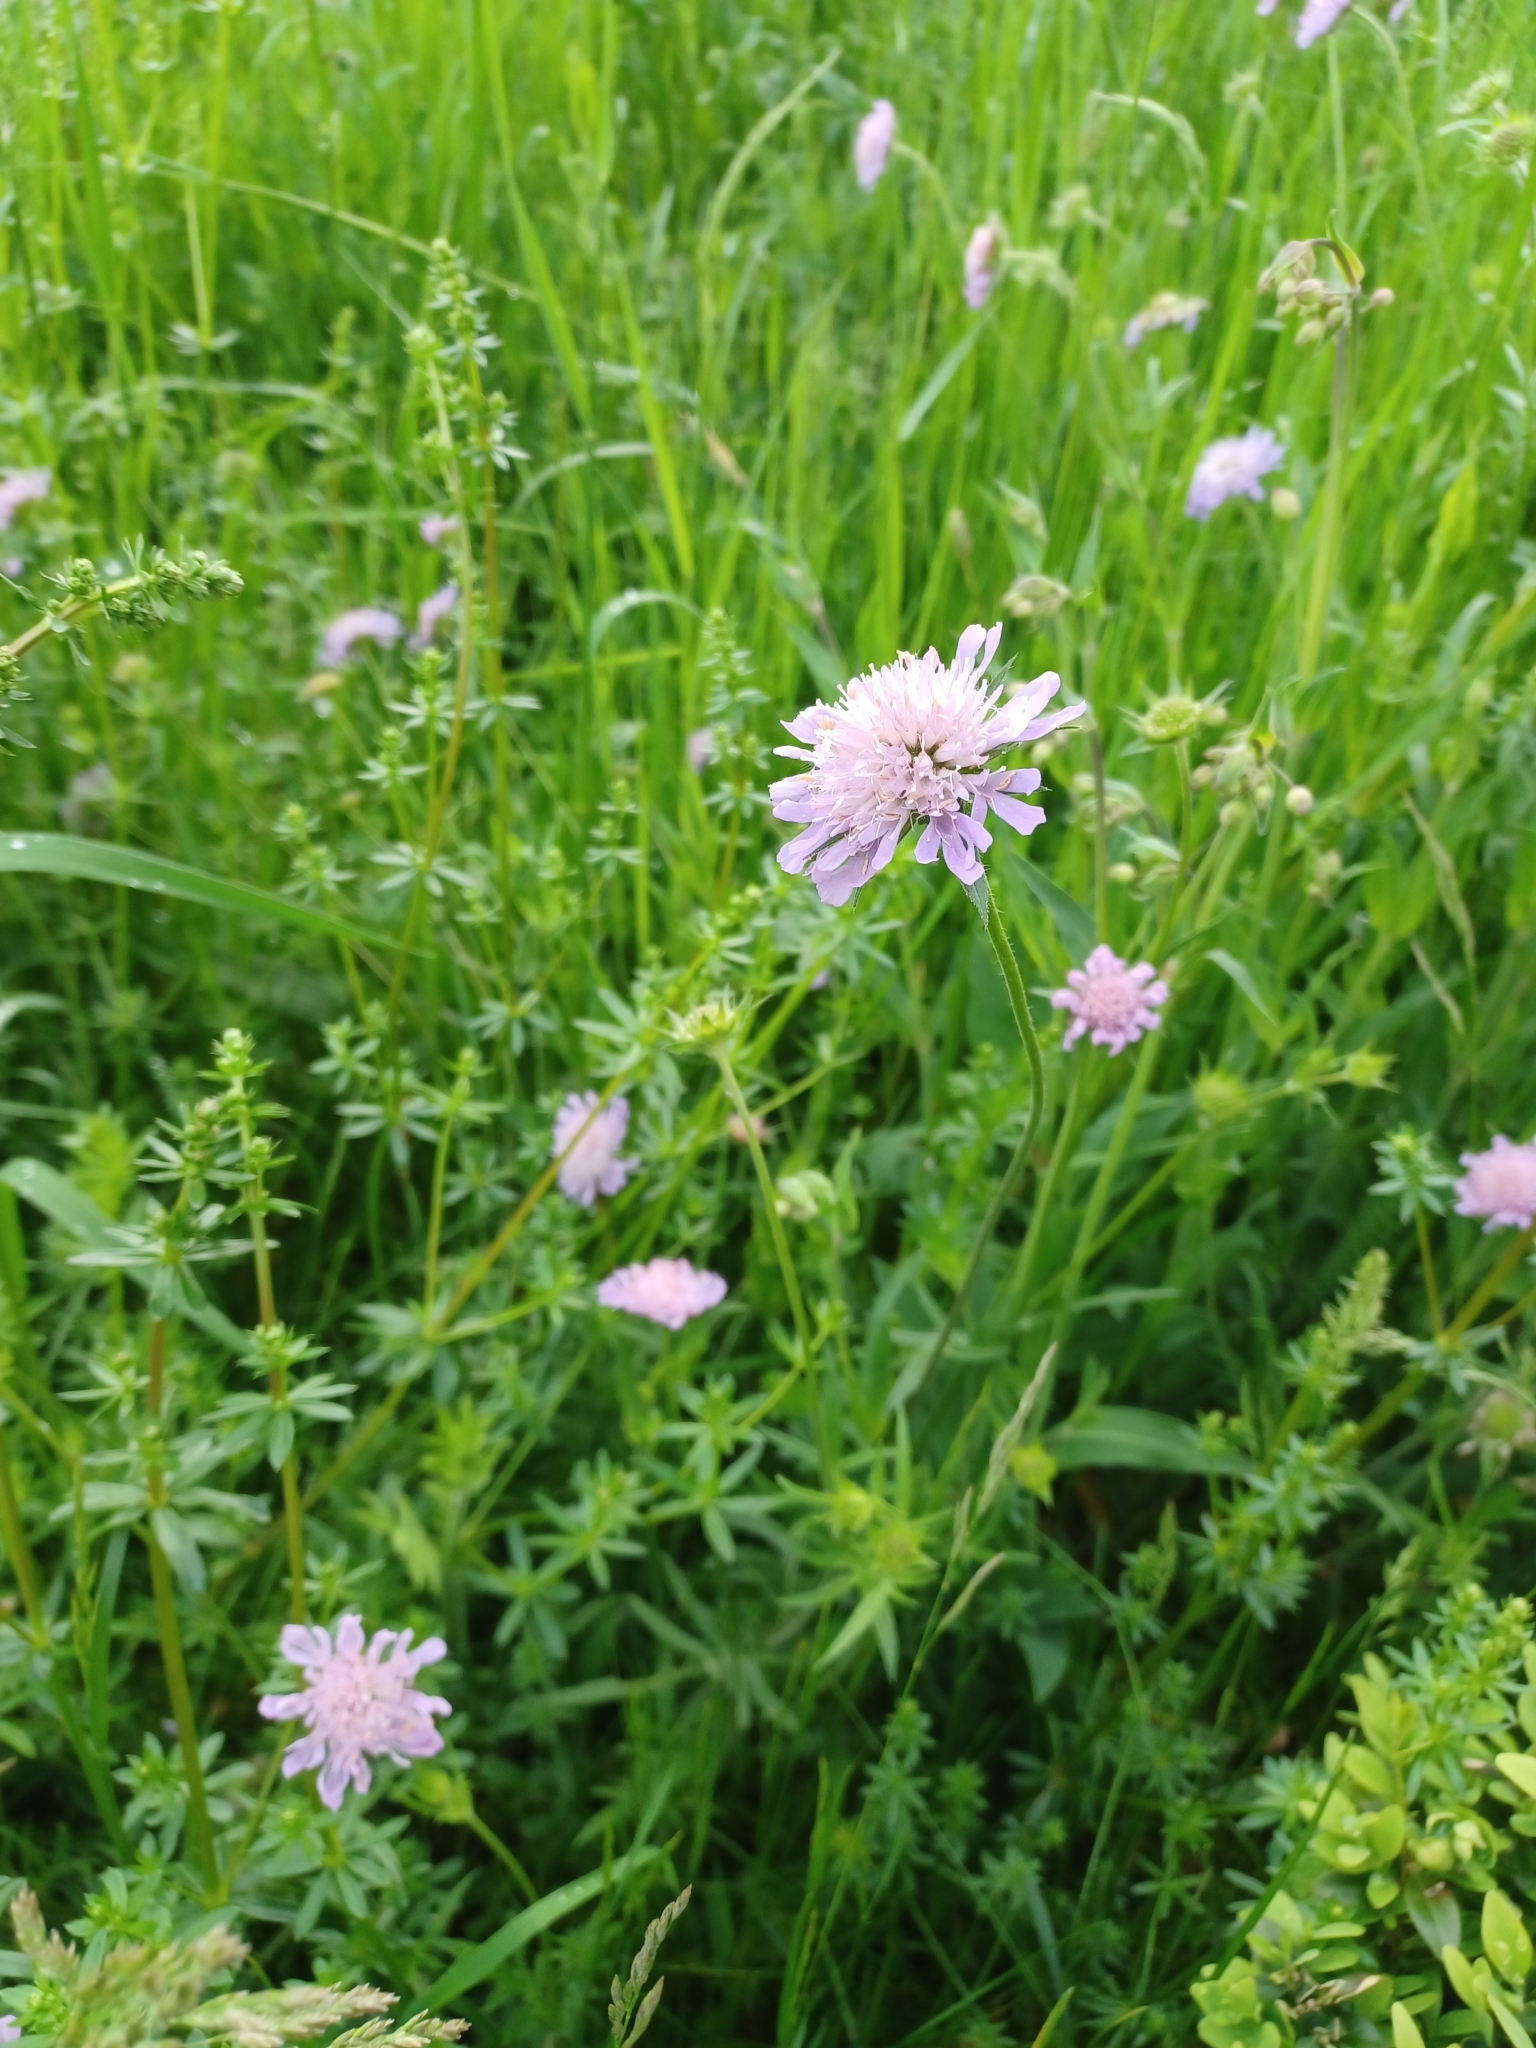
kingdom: Plantae
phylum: Tracheophyta
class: Magnoliopsida
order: Dipsacales
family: Caprifoliaceae
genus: Knautia
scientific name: Knautia arvensis
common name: Field scabiosa
